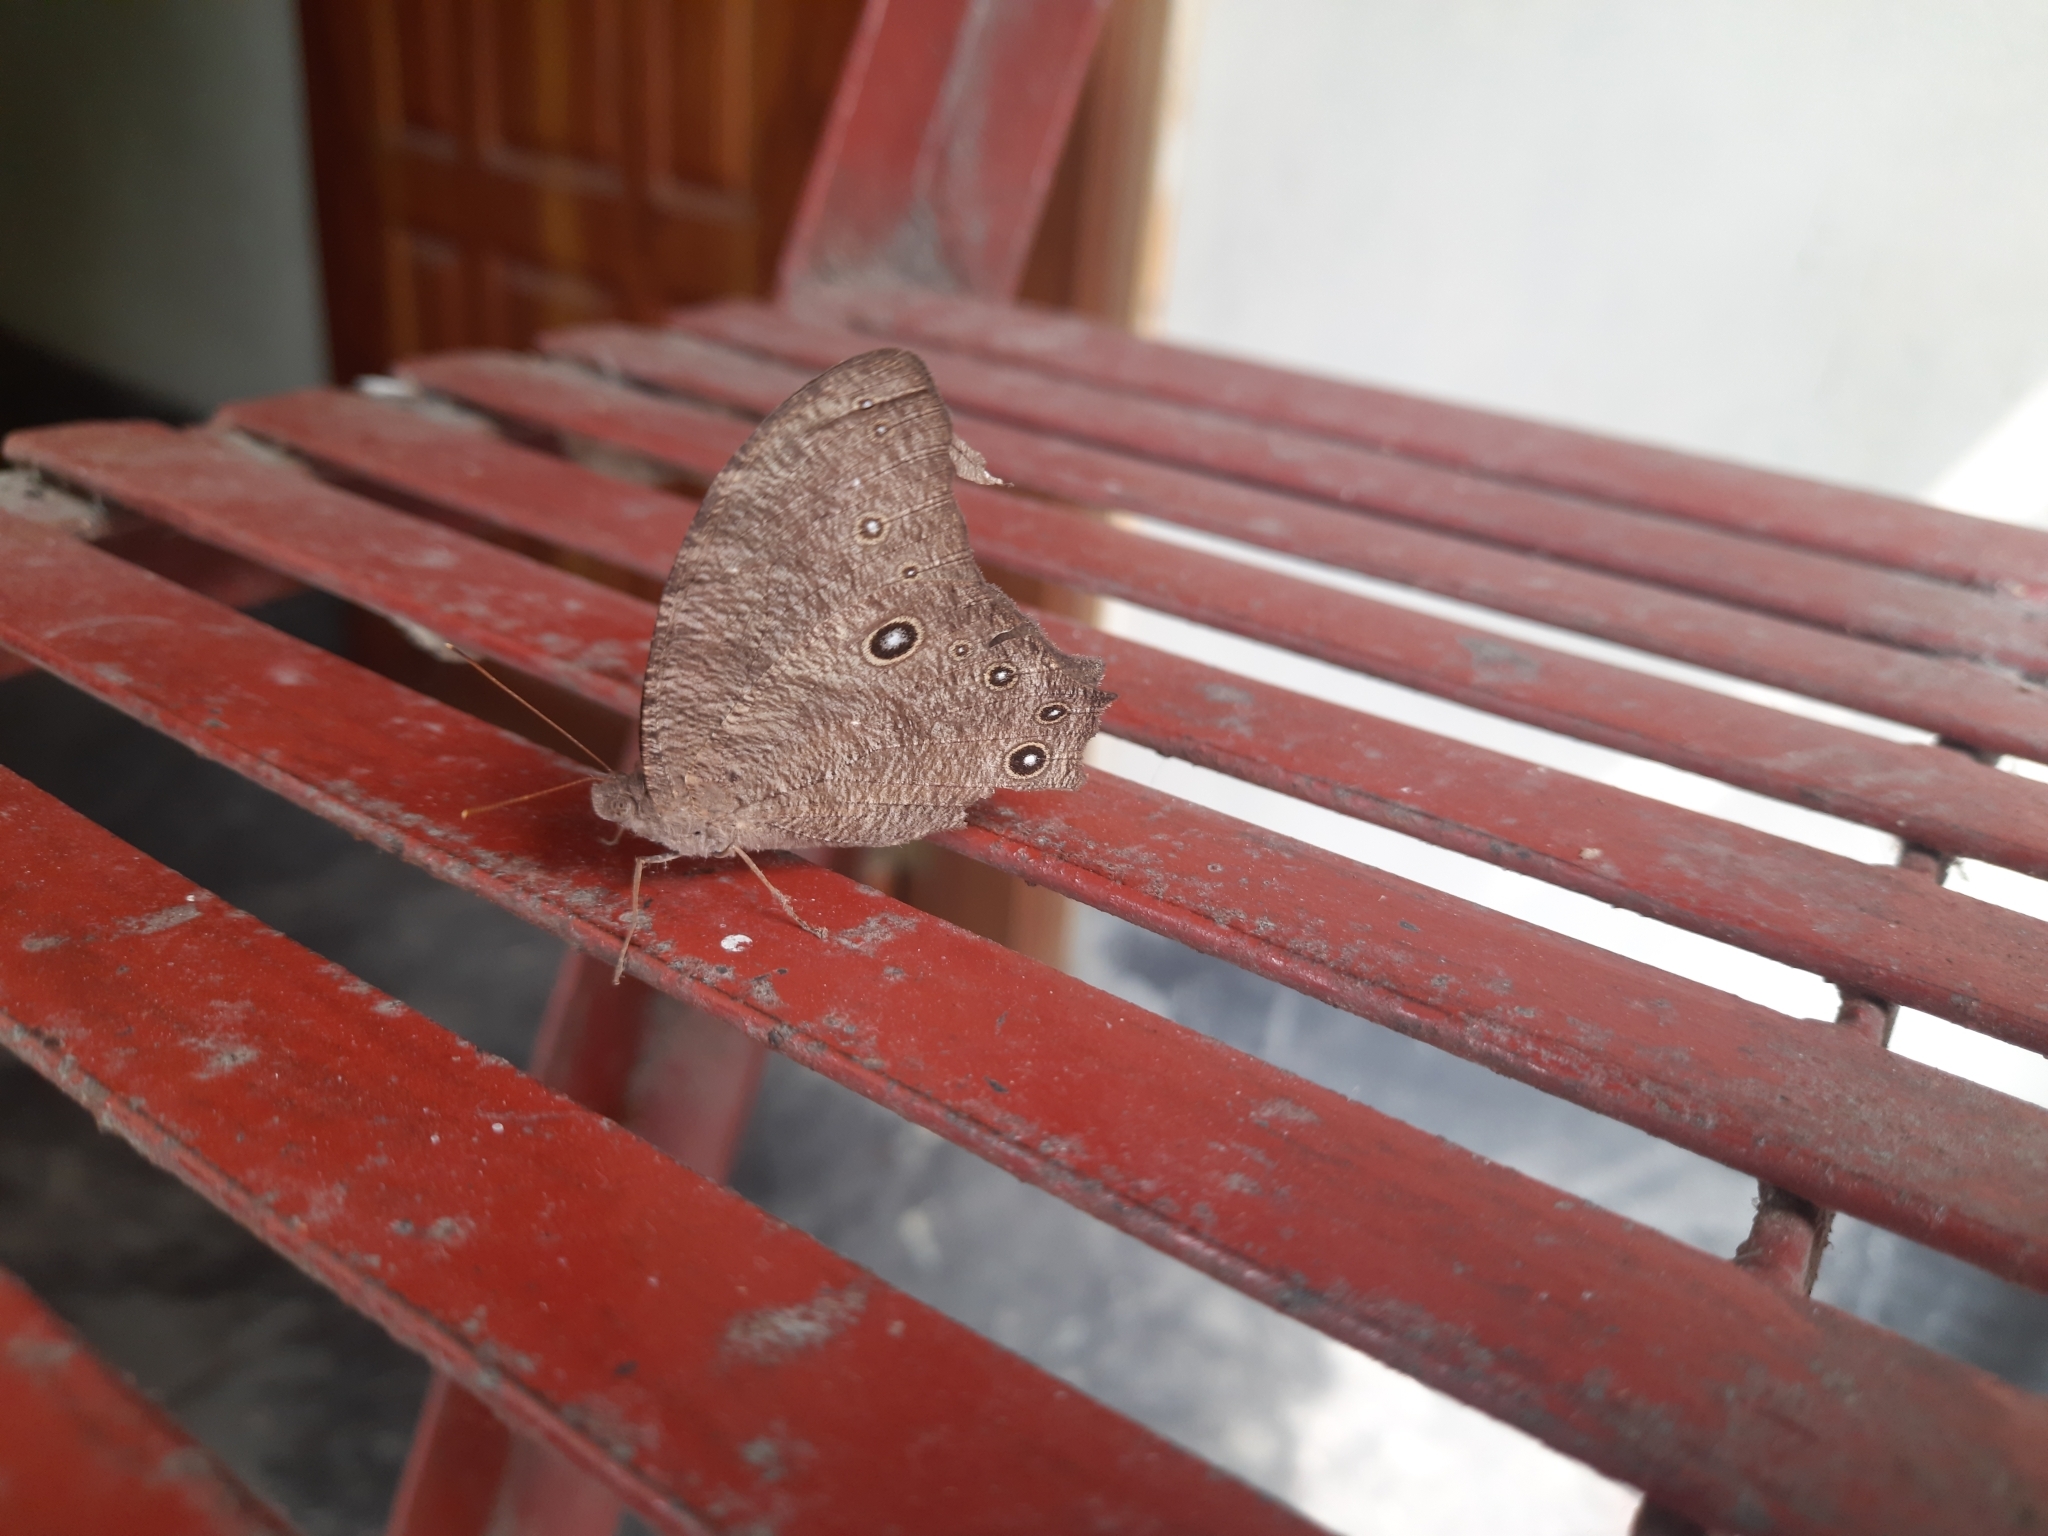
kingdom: Animalia
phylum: Arthropoda
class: Insecta
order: Lepidoptera
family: Nymphalidae
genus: Melanitis
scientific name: Melanitis leda
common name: Twilight brown
